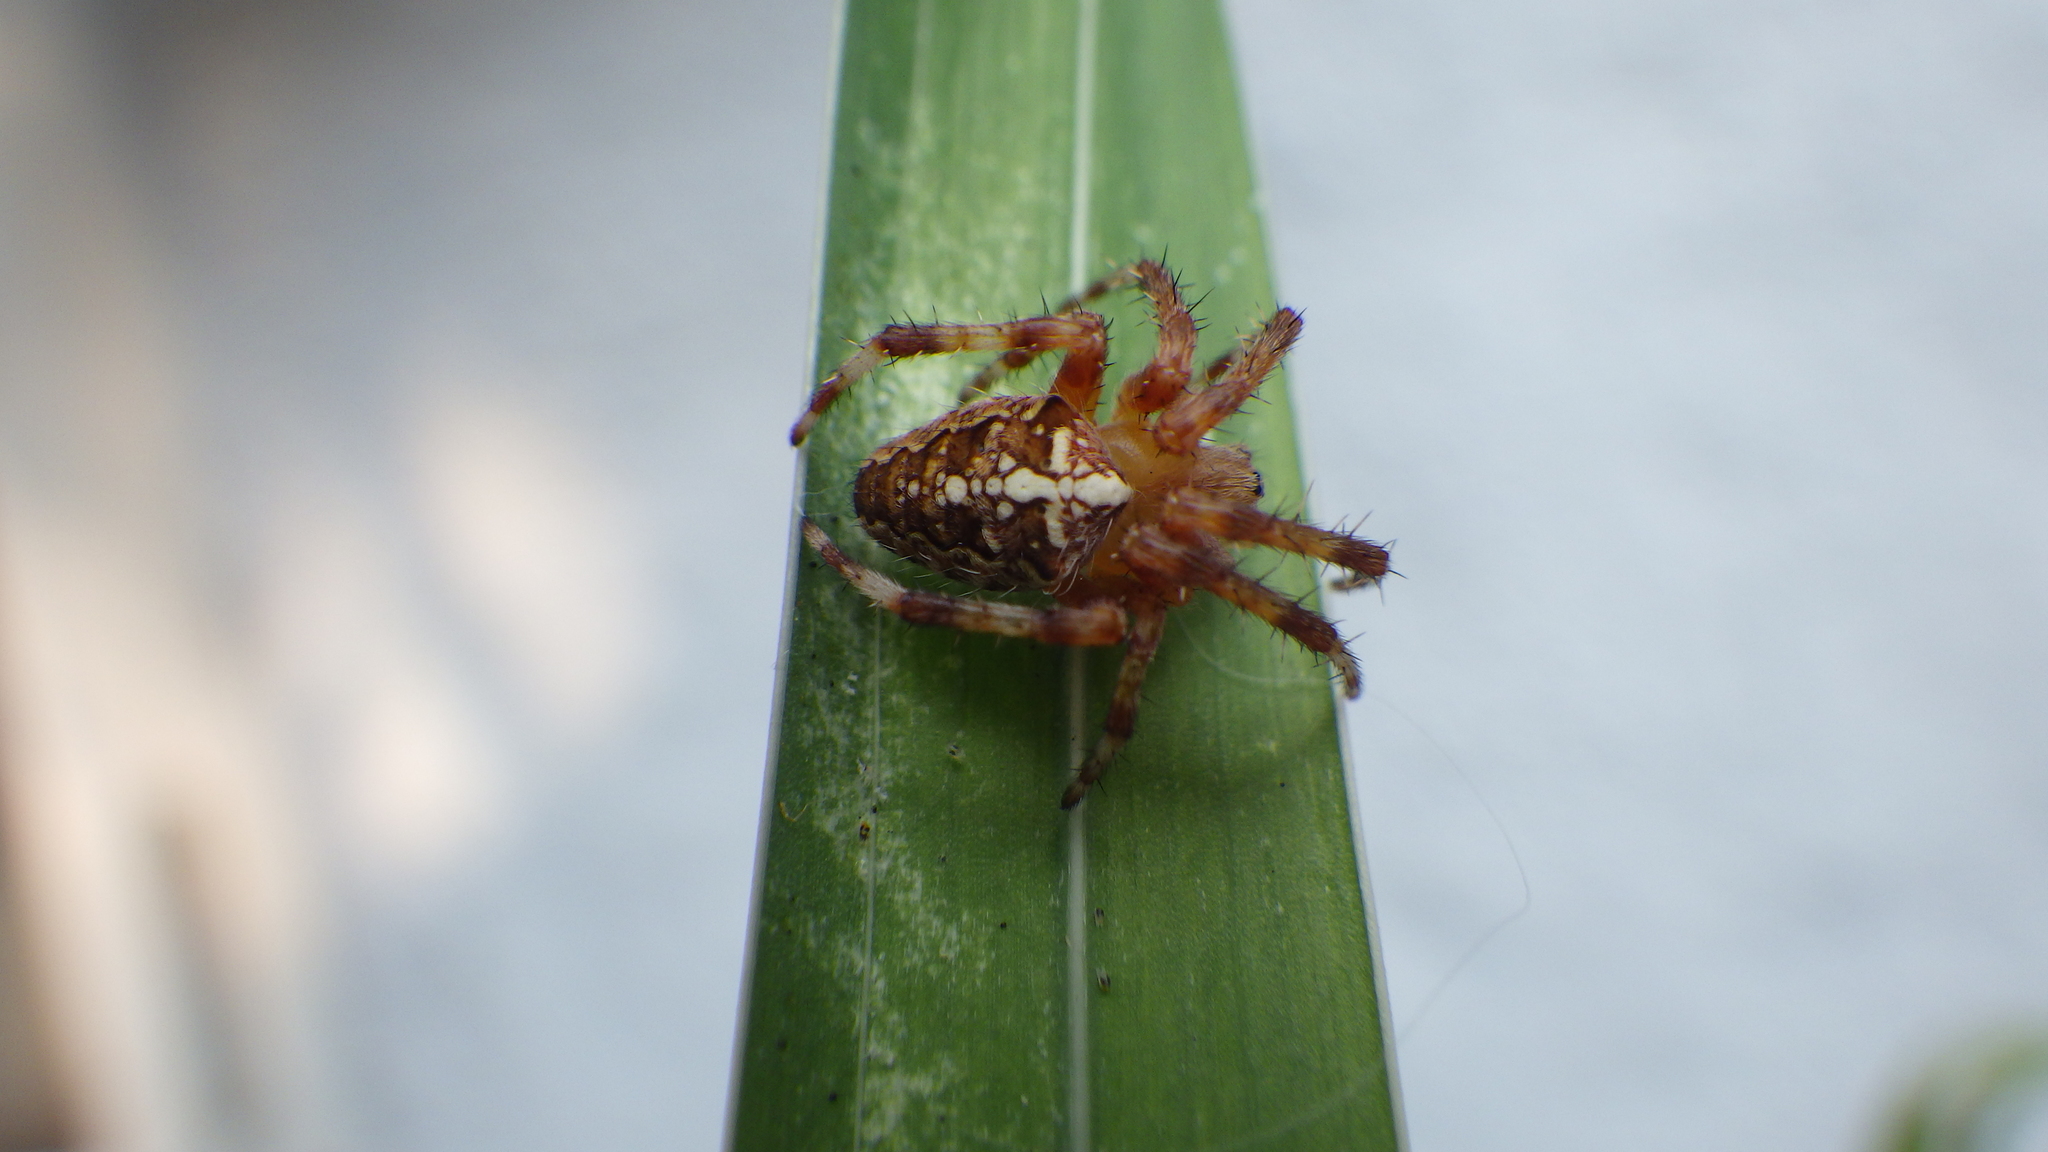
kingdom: Animalia
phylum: Arthropoda
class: Arachnida
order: Araneae
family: Araneidae
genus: Araneus
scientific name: Araneus diadematus
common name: Cross orbweaver
